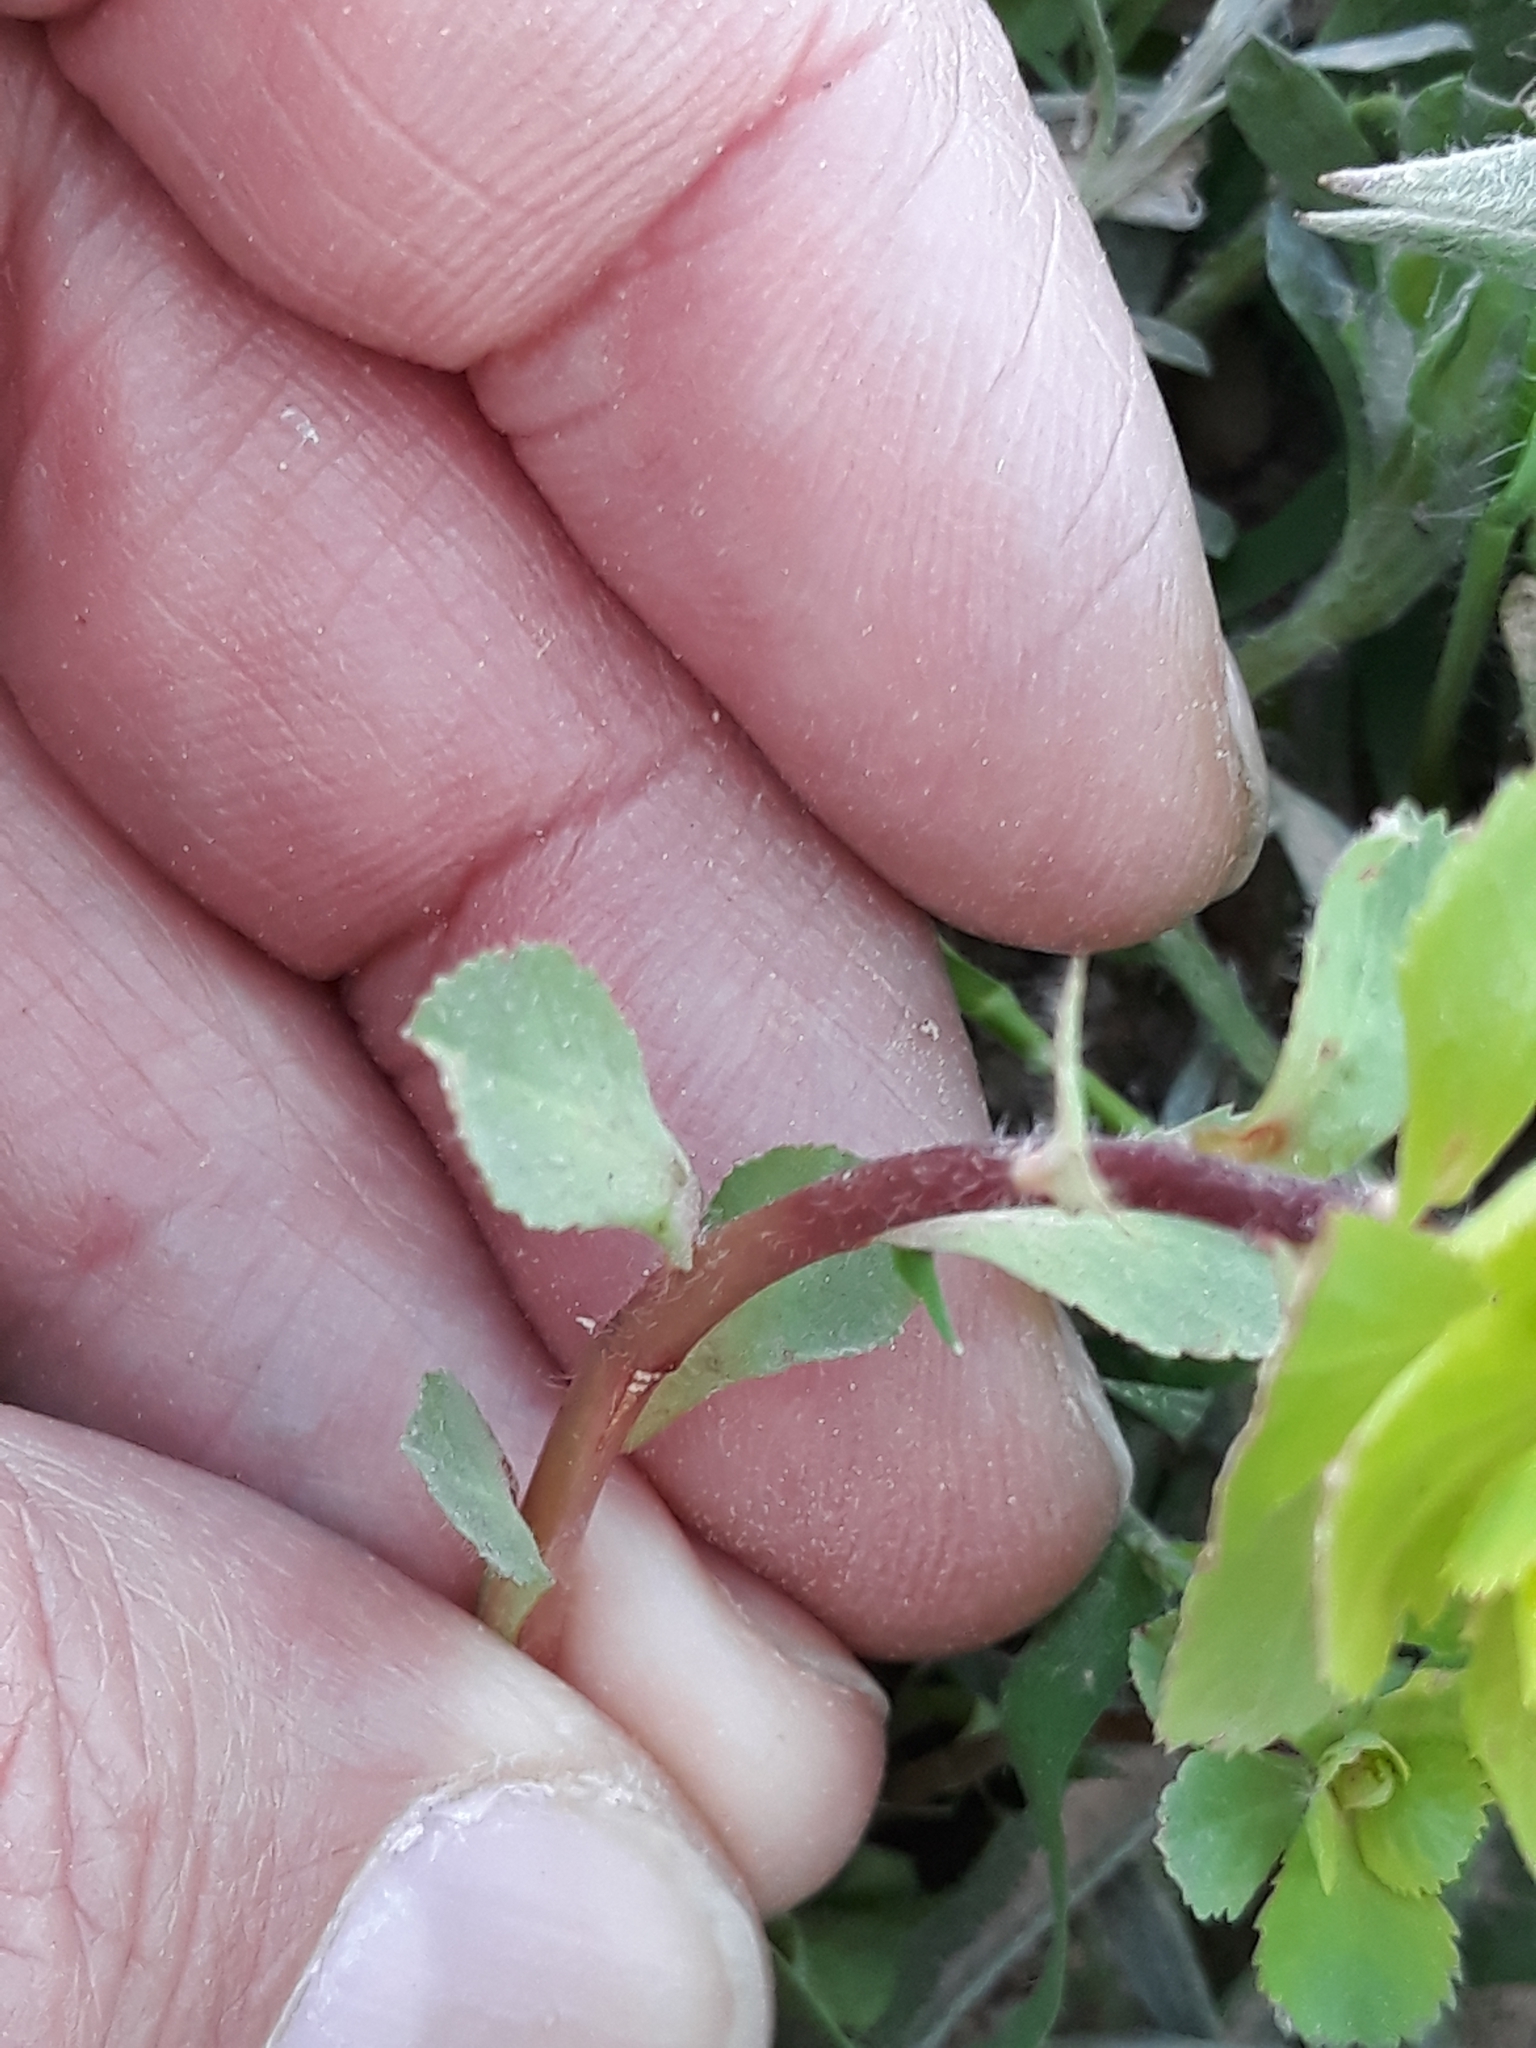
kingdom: Plantae
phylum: Tracheophyta
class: Magnoliopsida
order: Malpighiales
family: Euphorbiaceae
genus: Euphorbia
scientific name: Euphorbia helioscopia
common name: Sun spurge
